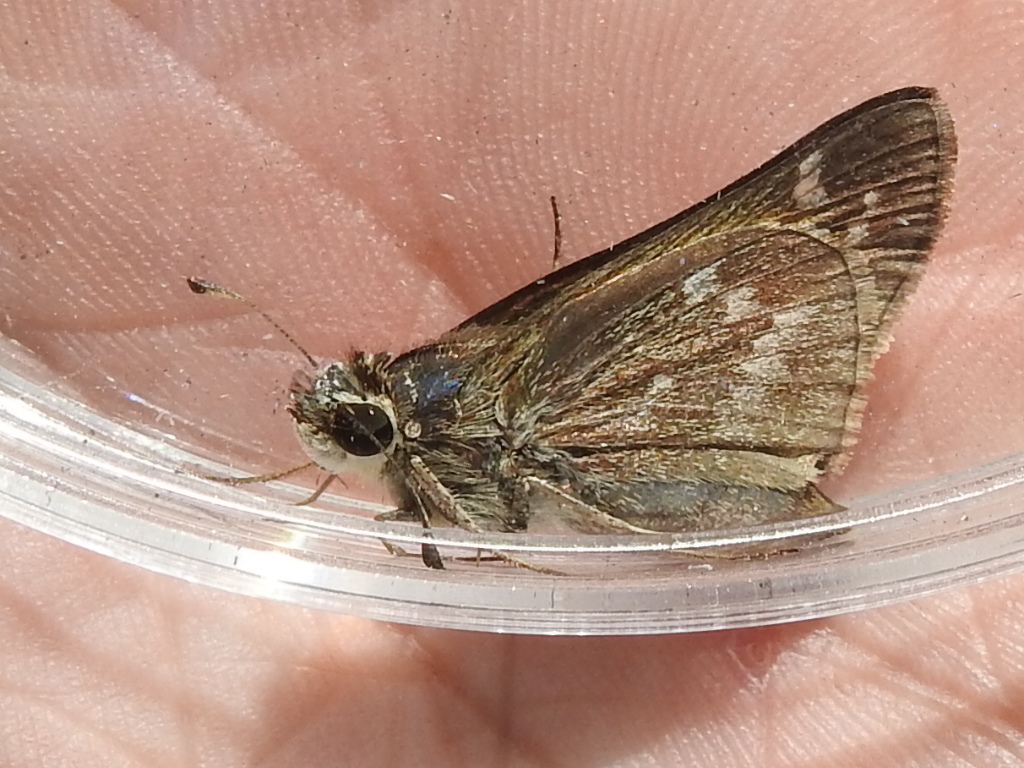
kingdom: Animalia
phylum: Arthropoda
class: Insecta
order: Lepidoptera
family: Hesperiidae
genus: Atalopedes
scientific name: Atalopedes
